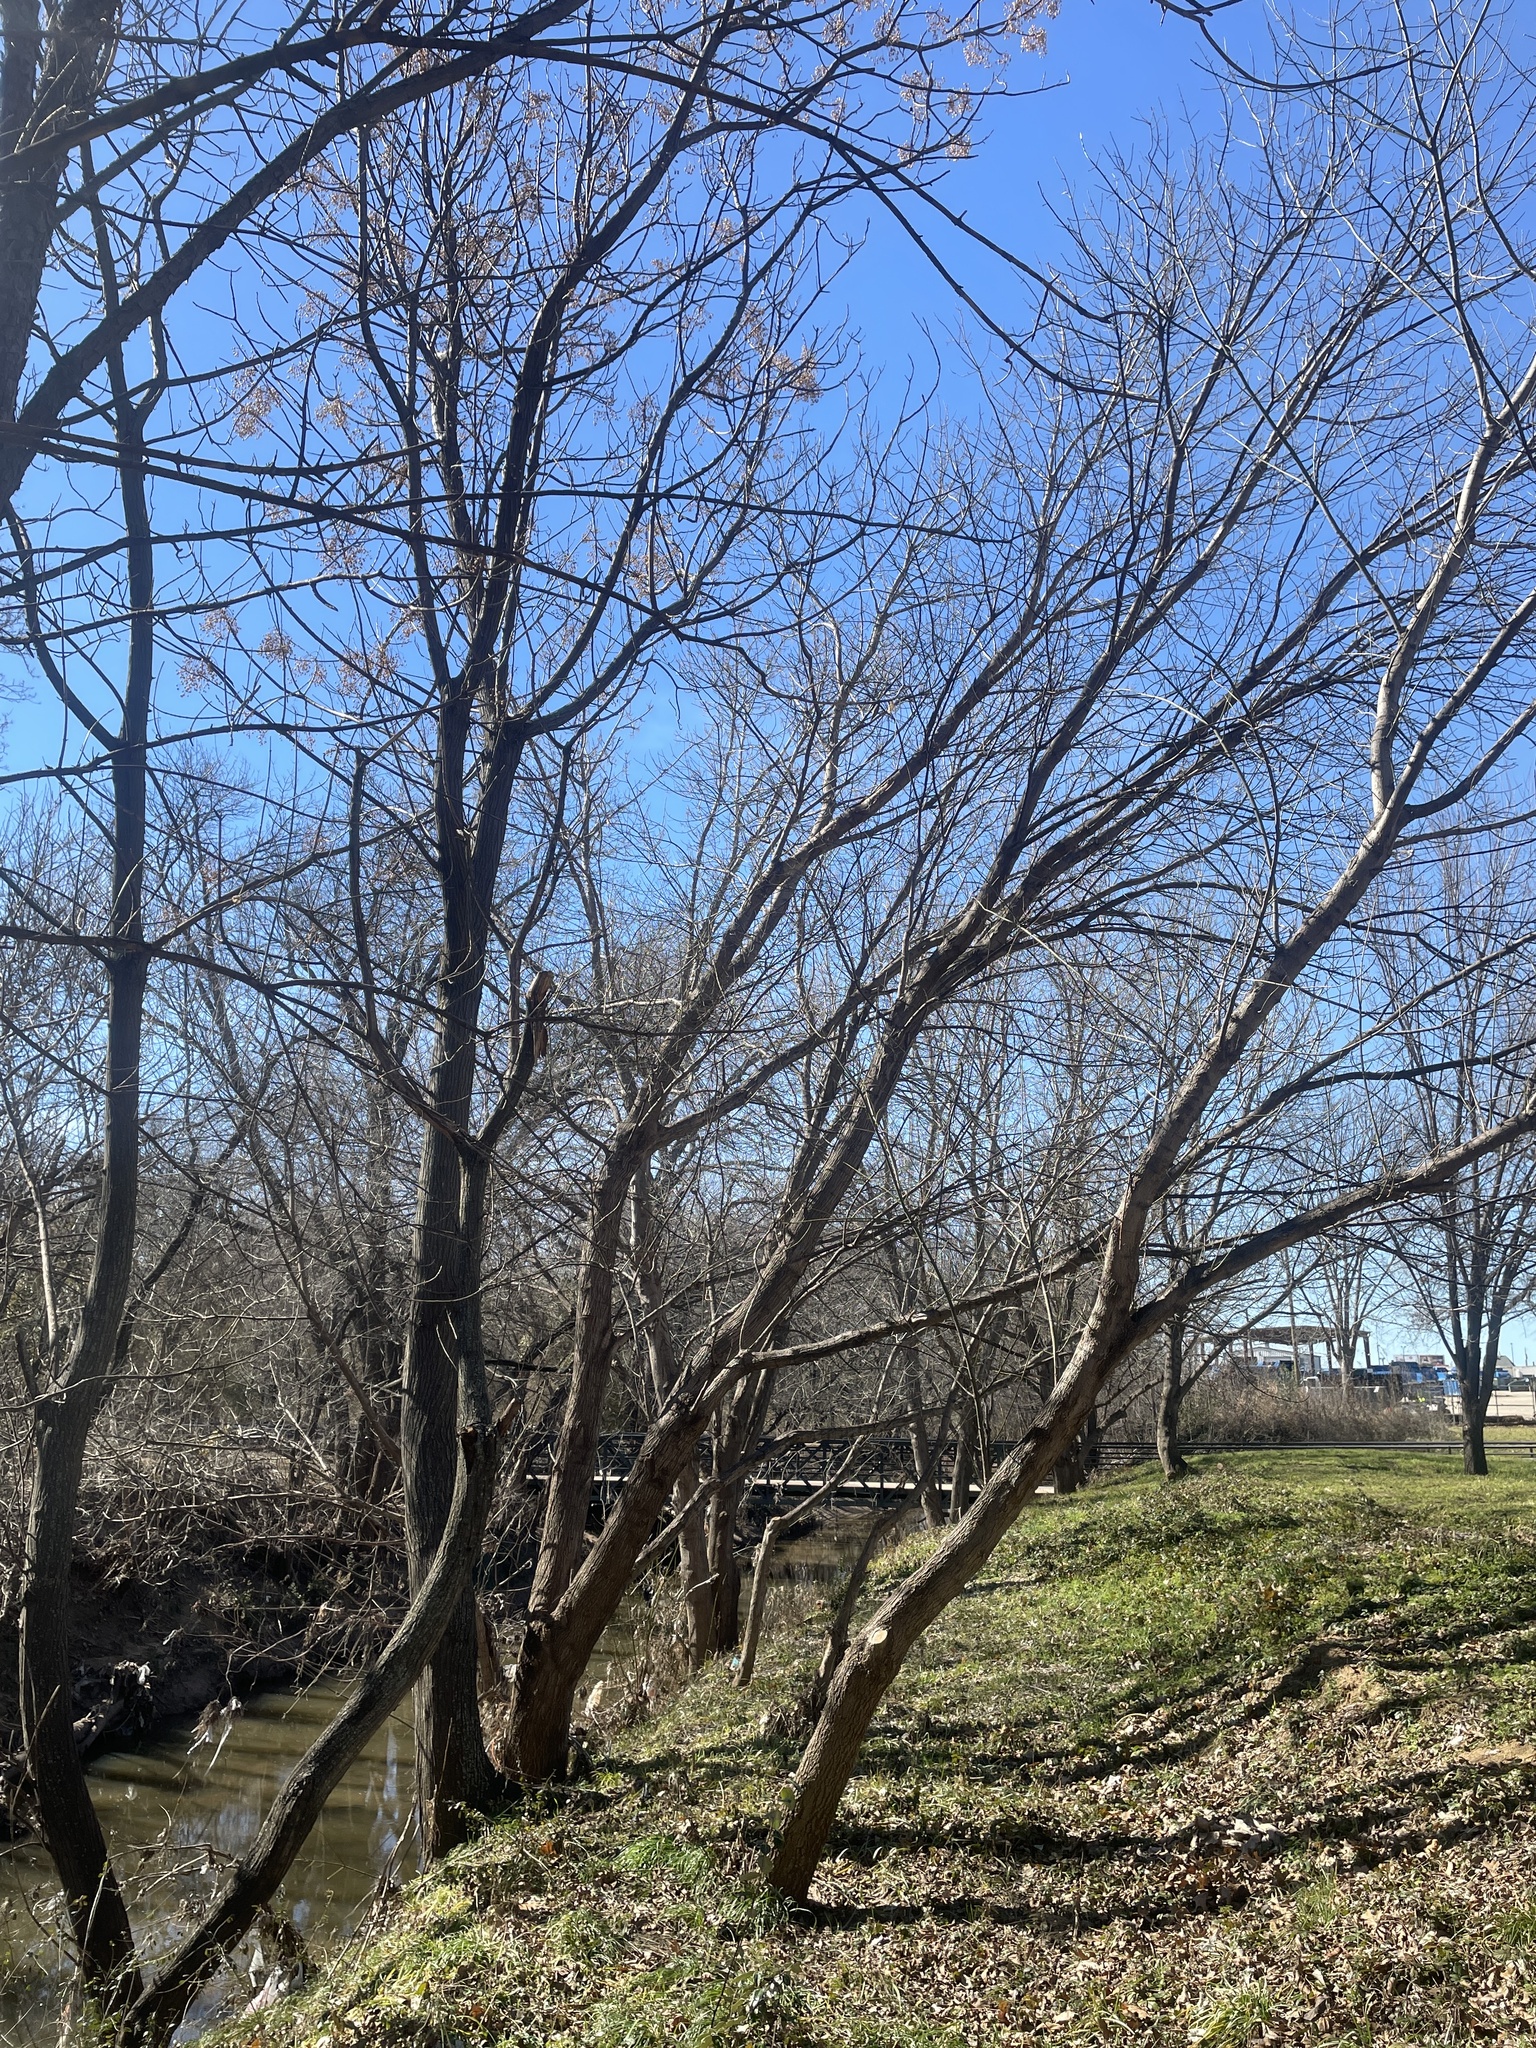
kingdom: Plantae
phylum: Tracheophyta
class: Magnoliopsida
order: Sapindales
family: Sapindaceae
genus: Acer
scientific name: Acer negundo
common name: Ashleaf maple
